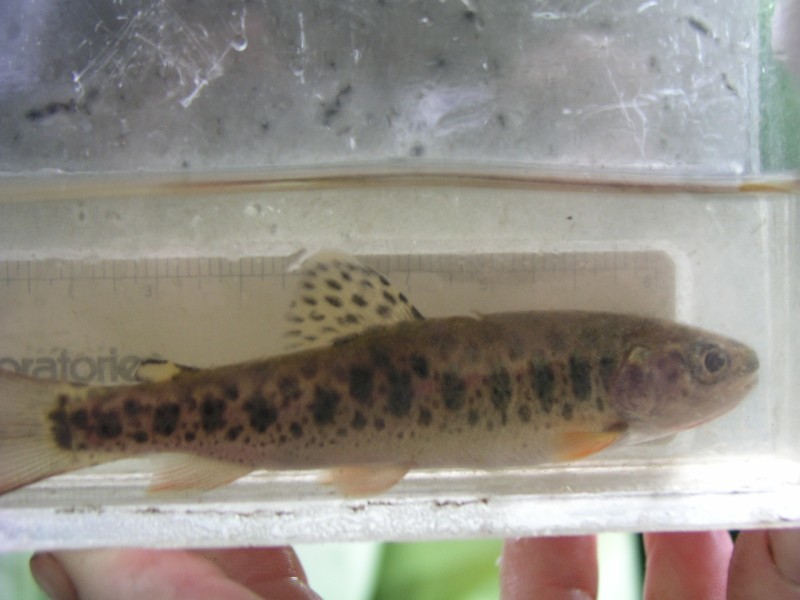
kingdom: Animalia
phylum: Chordata
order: Salmoniformes
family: Salmonidae
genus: Oncorhynchus
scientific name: Oncorhynchus clarkii
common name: Cutthroat trout
